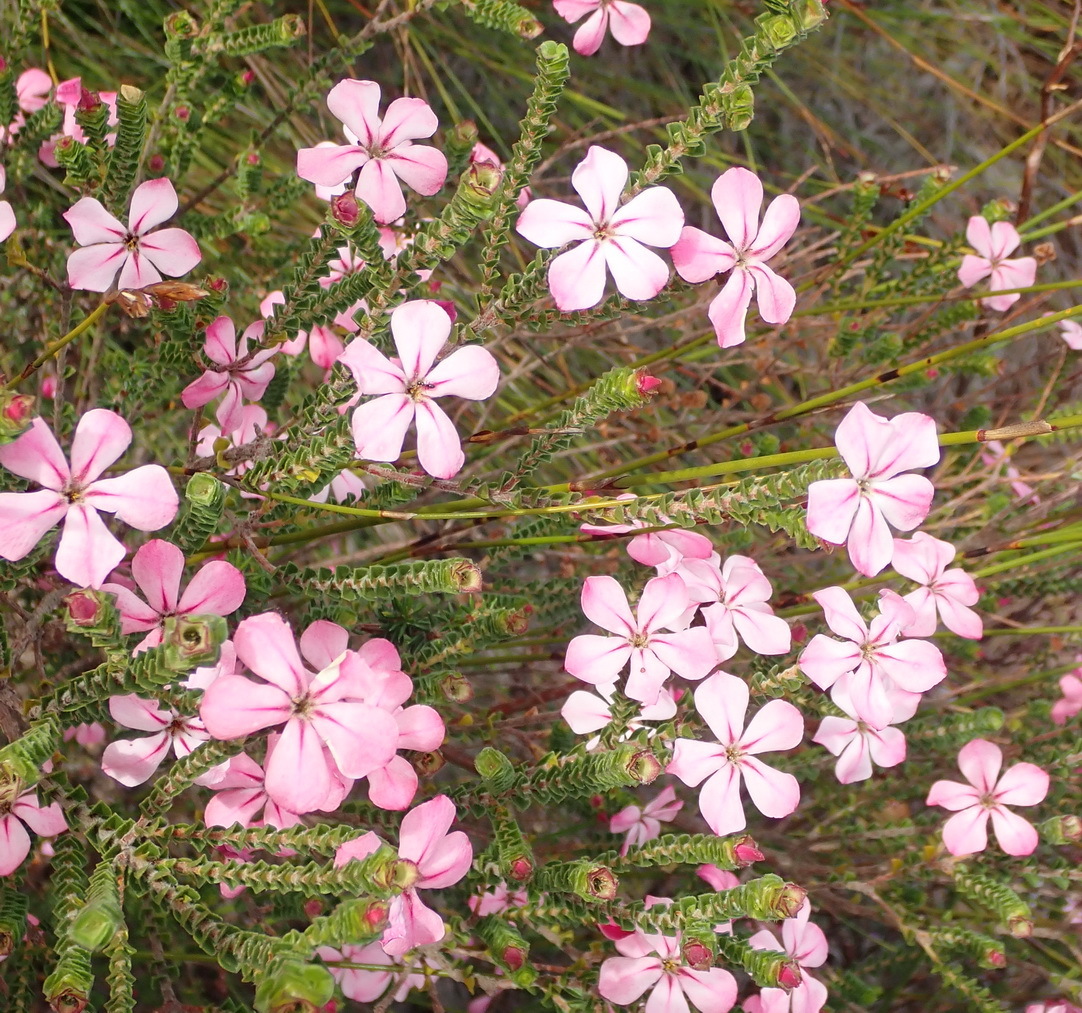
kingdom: Plantae
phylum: Tracheophyta
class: Magnoliopsida
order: Sapindales
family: Rutaceae
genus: Acmadenia
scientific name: Acmadenia tetragona
